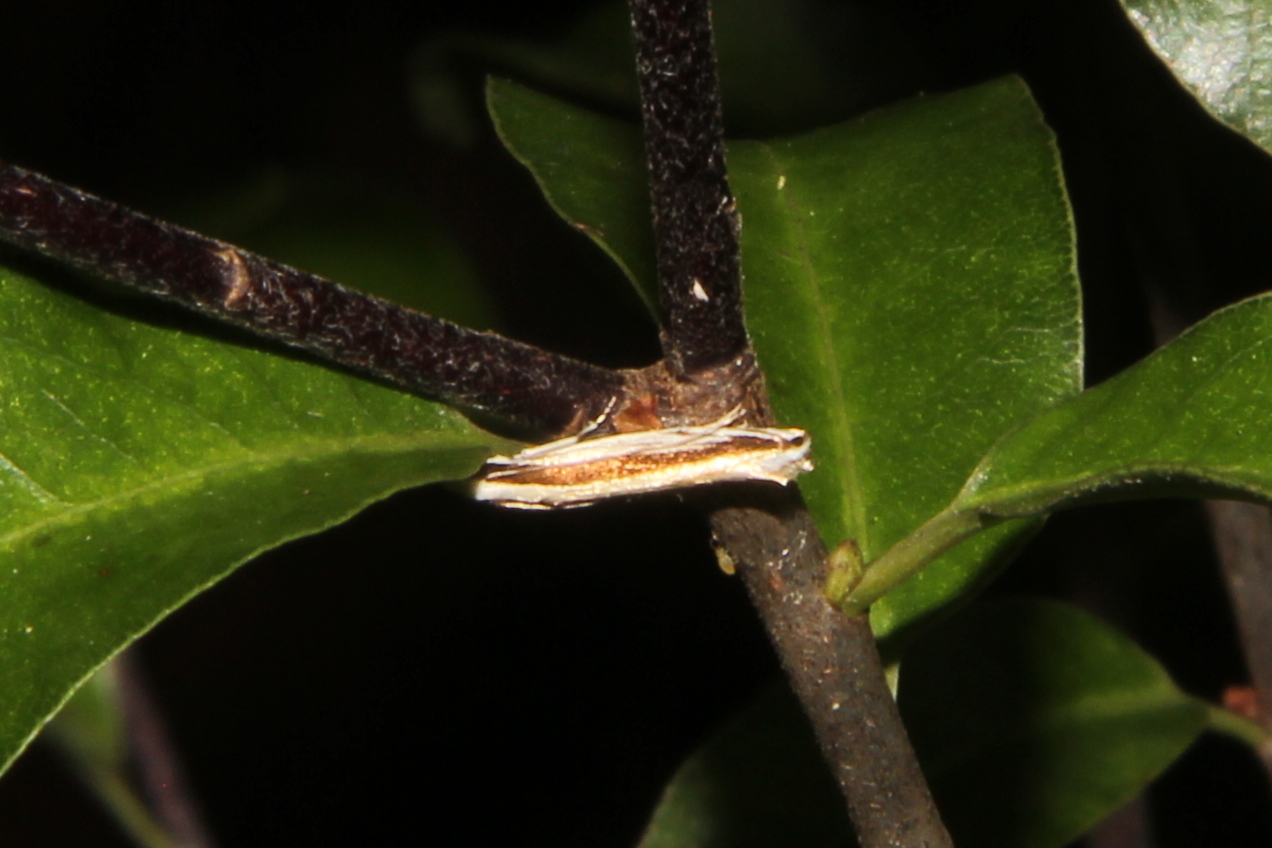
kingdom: Animalia
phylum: Arthropoda
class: Insecta
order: Lepidoptera
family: Tineidae
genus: Erechthias
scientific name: Erechthias stilbella
